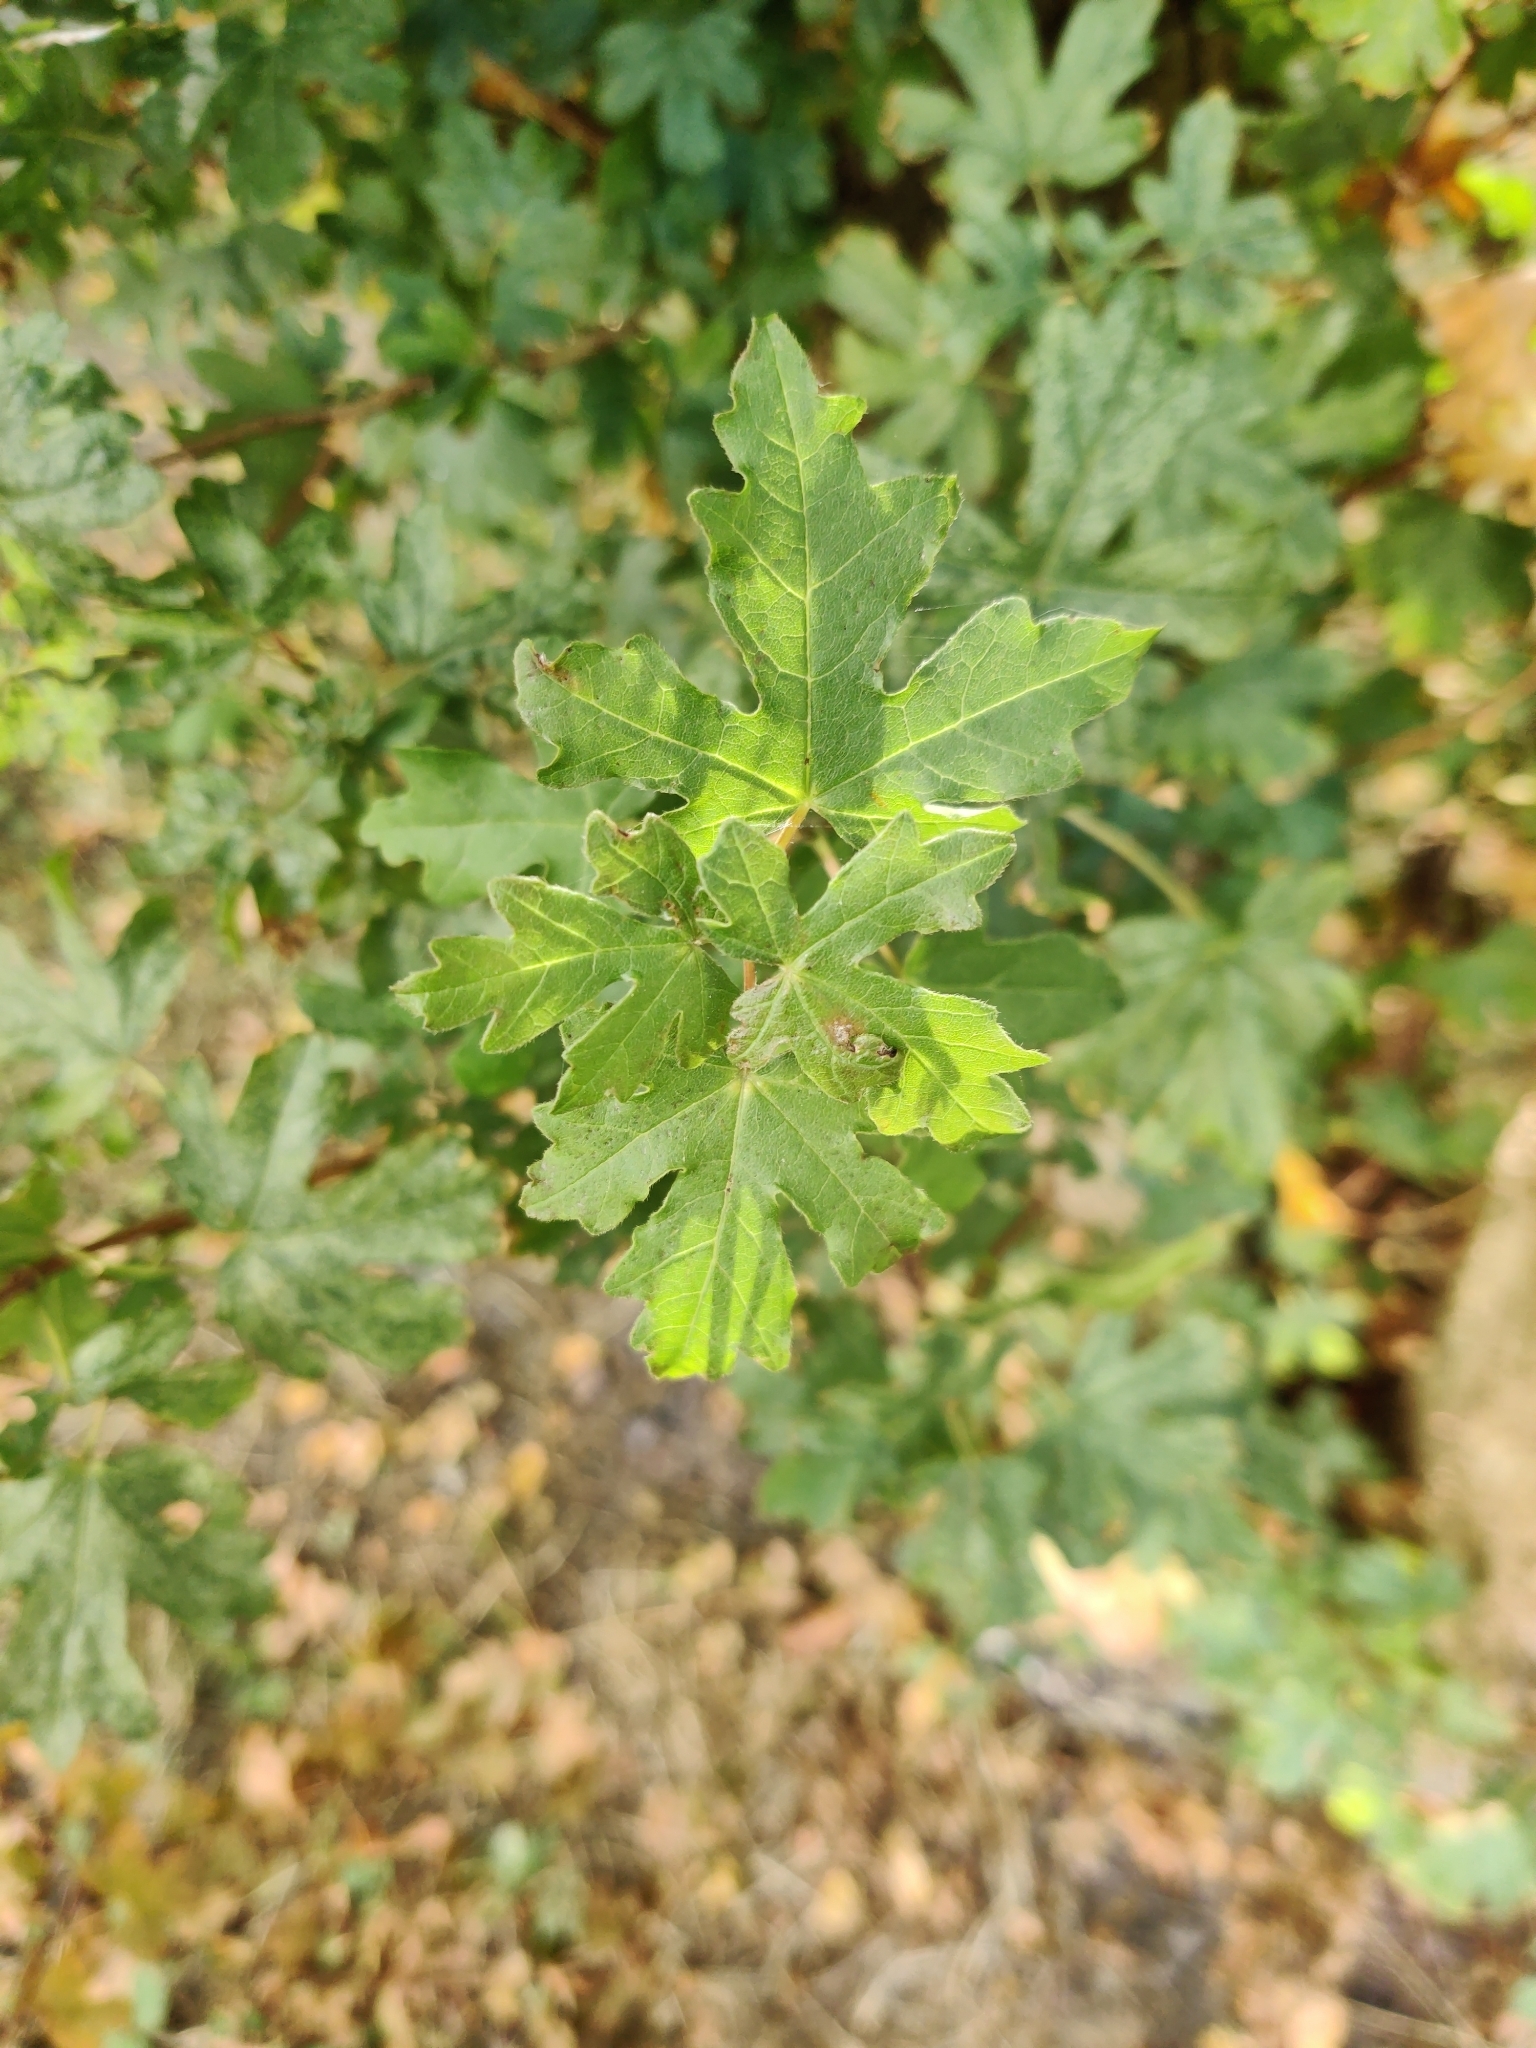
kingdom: Plantae
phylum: Tracheophyta
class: Magnoliopsida
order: Sapindales
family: Sapindaceae
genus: Acer
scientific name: Acer campestre
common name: Field maple
